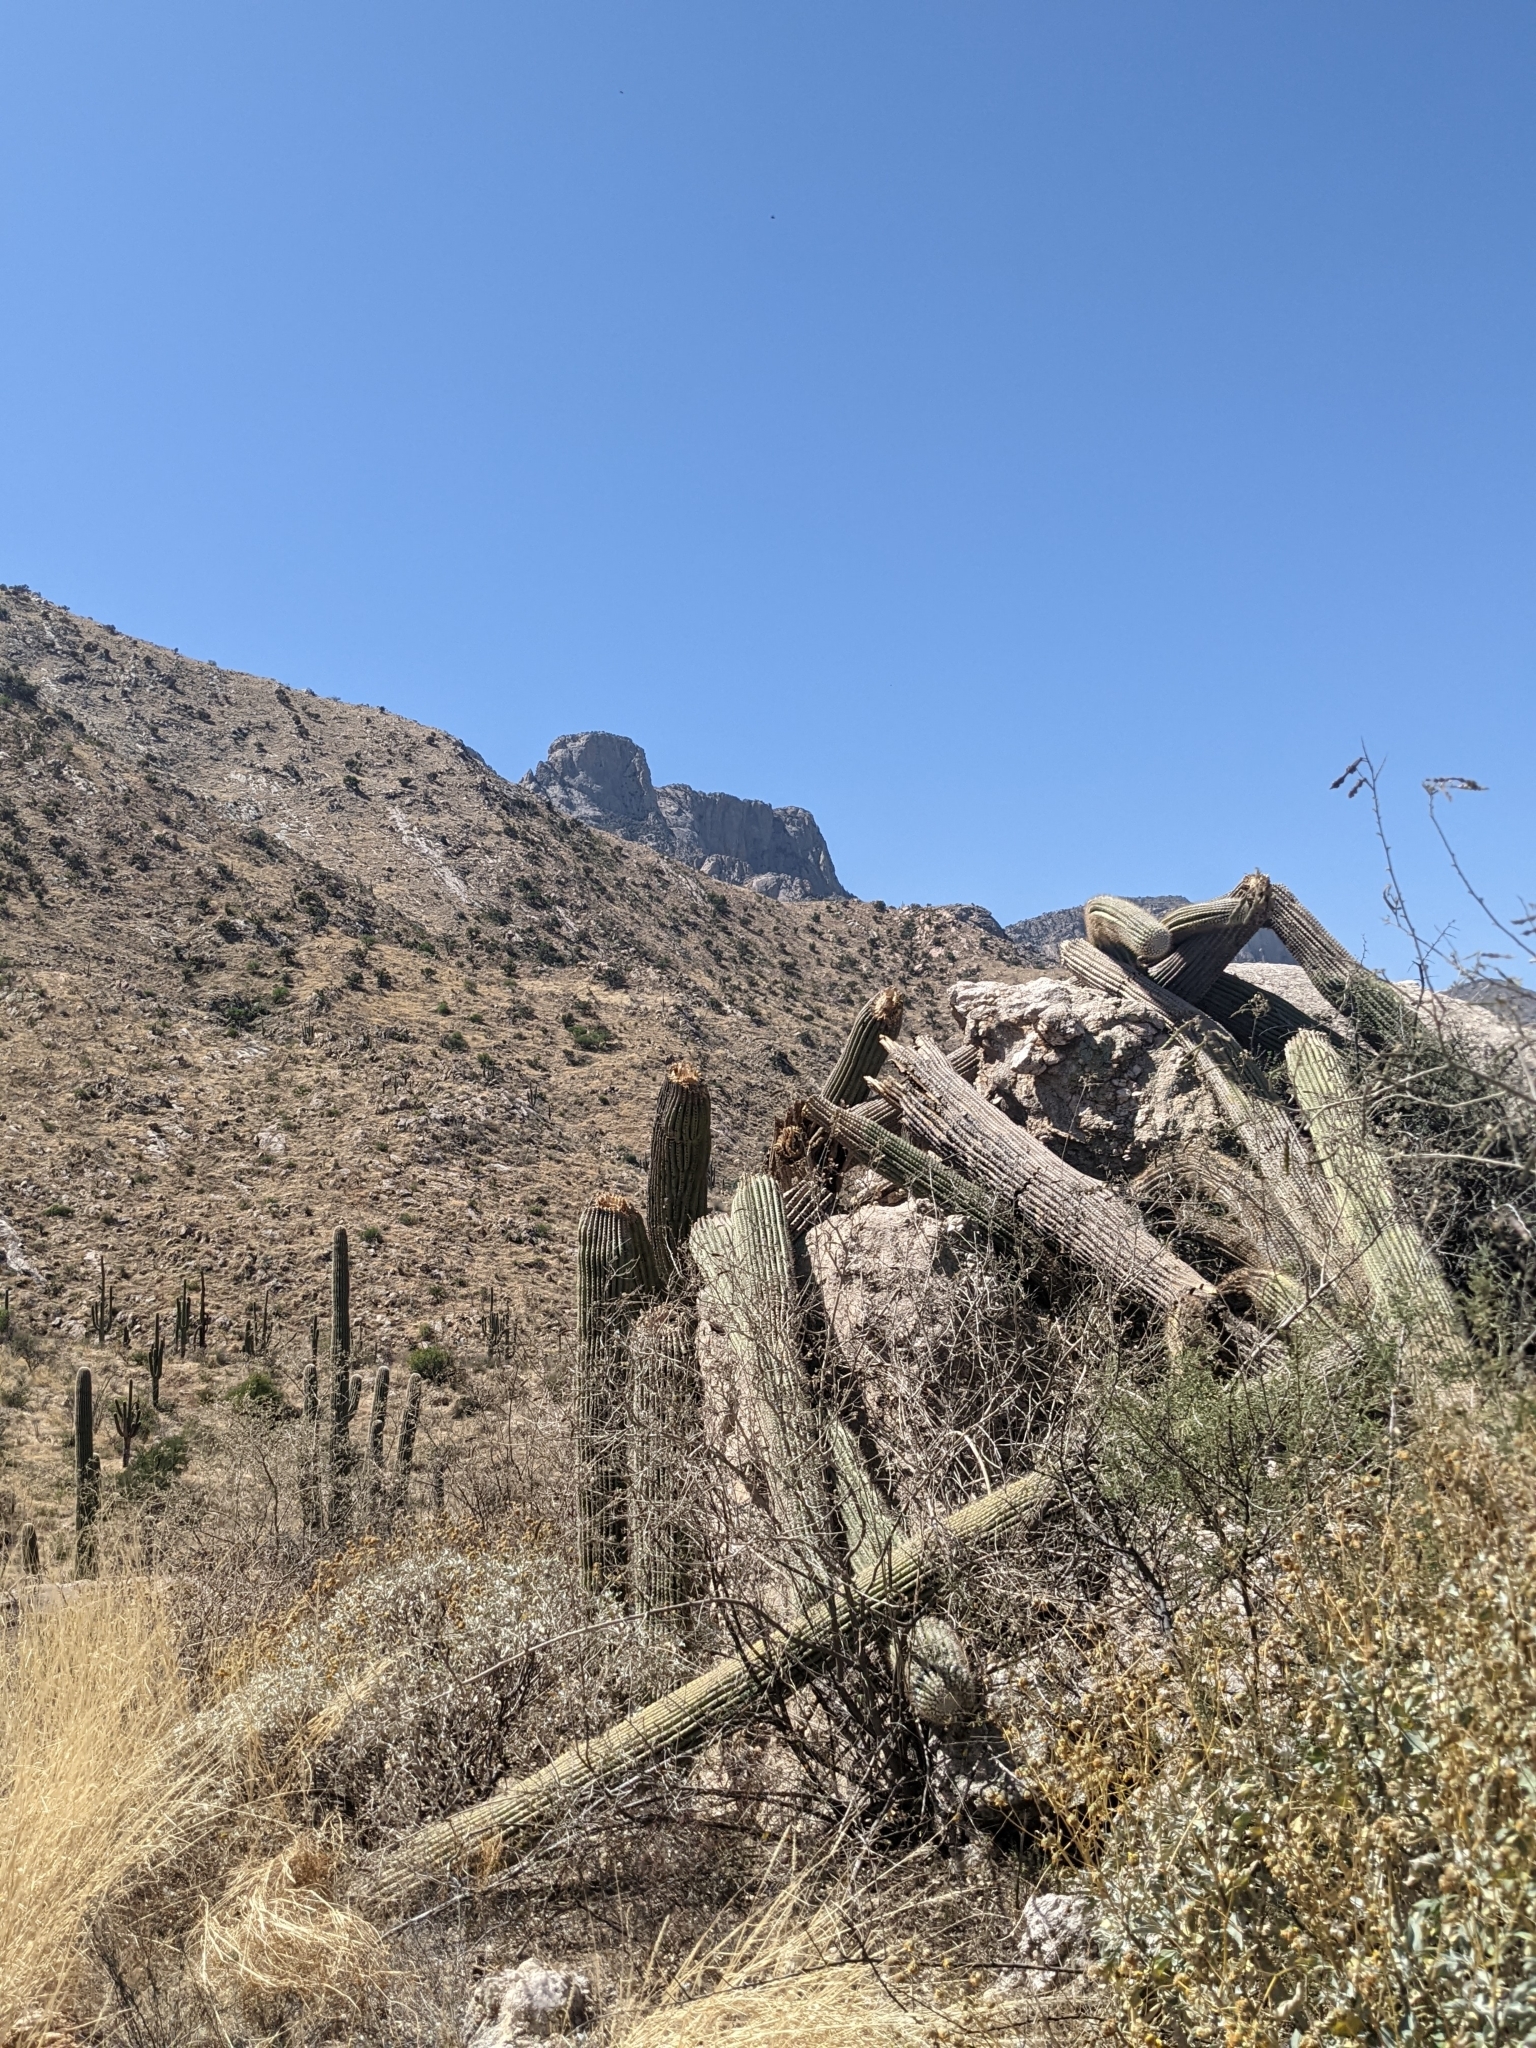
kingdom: Plantae
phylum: Tracheophyta
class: Magnoliopsida
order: Caryophyllales
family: Cactaceae
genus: Carnegiea
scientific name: Carnegiea gigantea
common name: Saguaro
